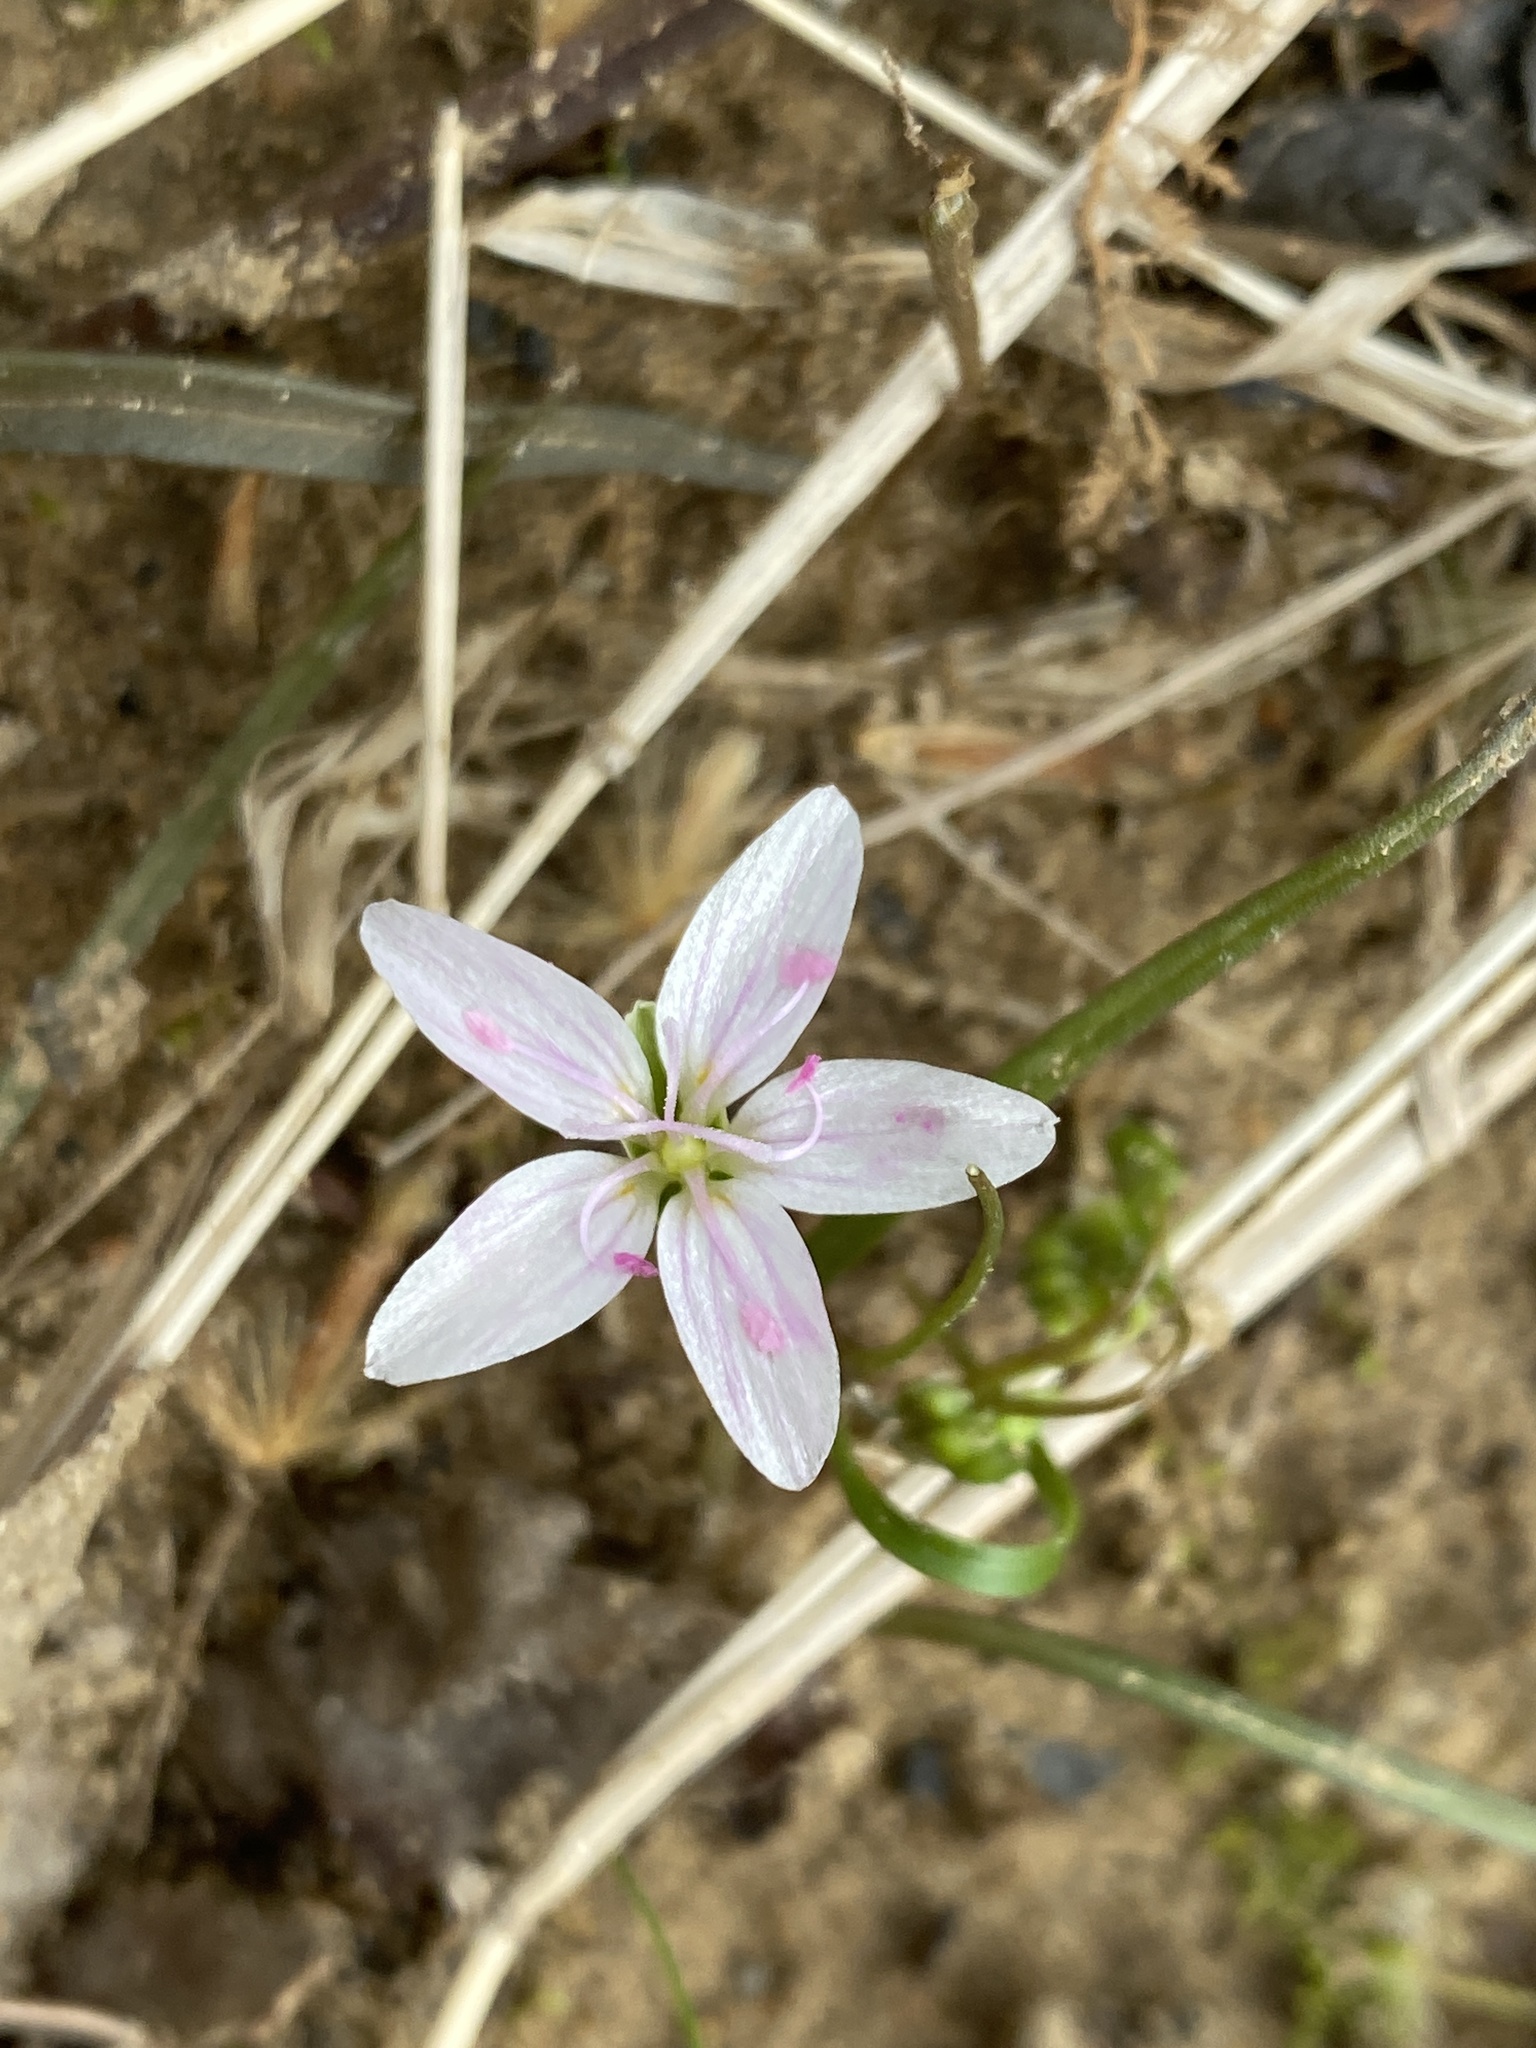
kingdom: Plantae
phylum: Tracheophyta
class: Magnoliopsida
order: Caryophyllales
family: Montiaceae
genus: Claytonia
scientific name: Claytonia virginica
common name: Virginia springbeauty
